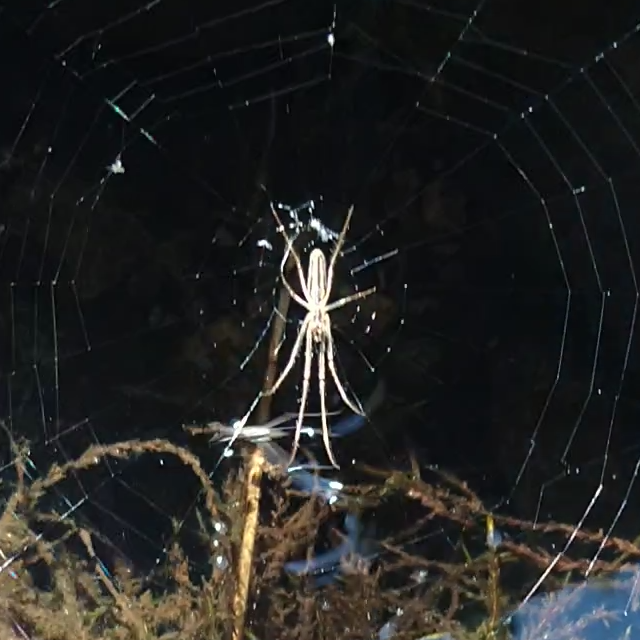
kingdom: Animalia
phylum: Arthropoda
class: Arachnida
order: Araneae
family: Tetragnathidae
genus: Tetragnatha
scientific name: Tetragnatha
